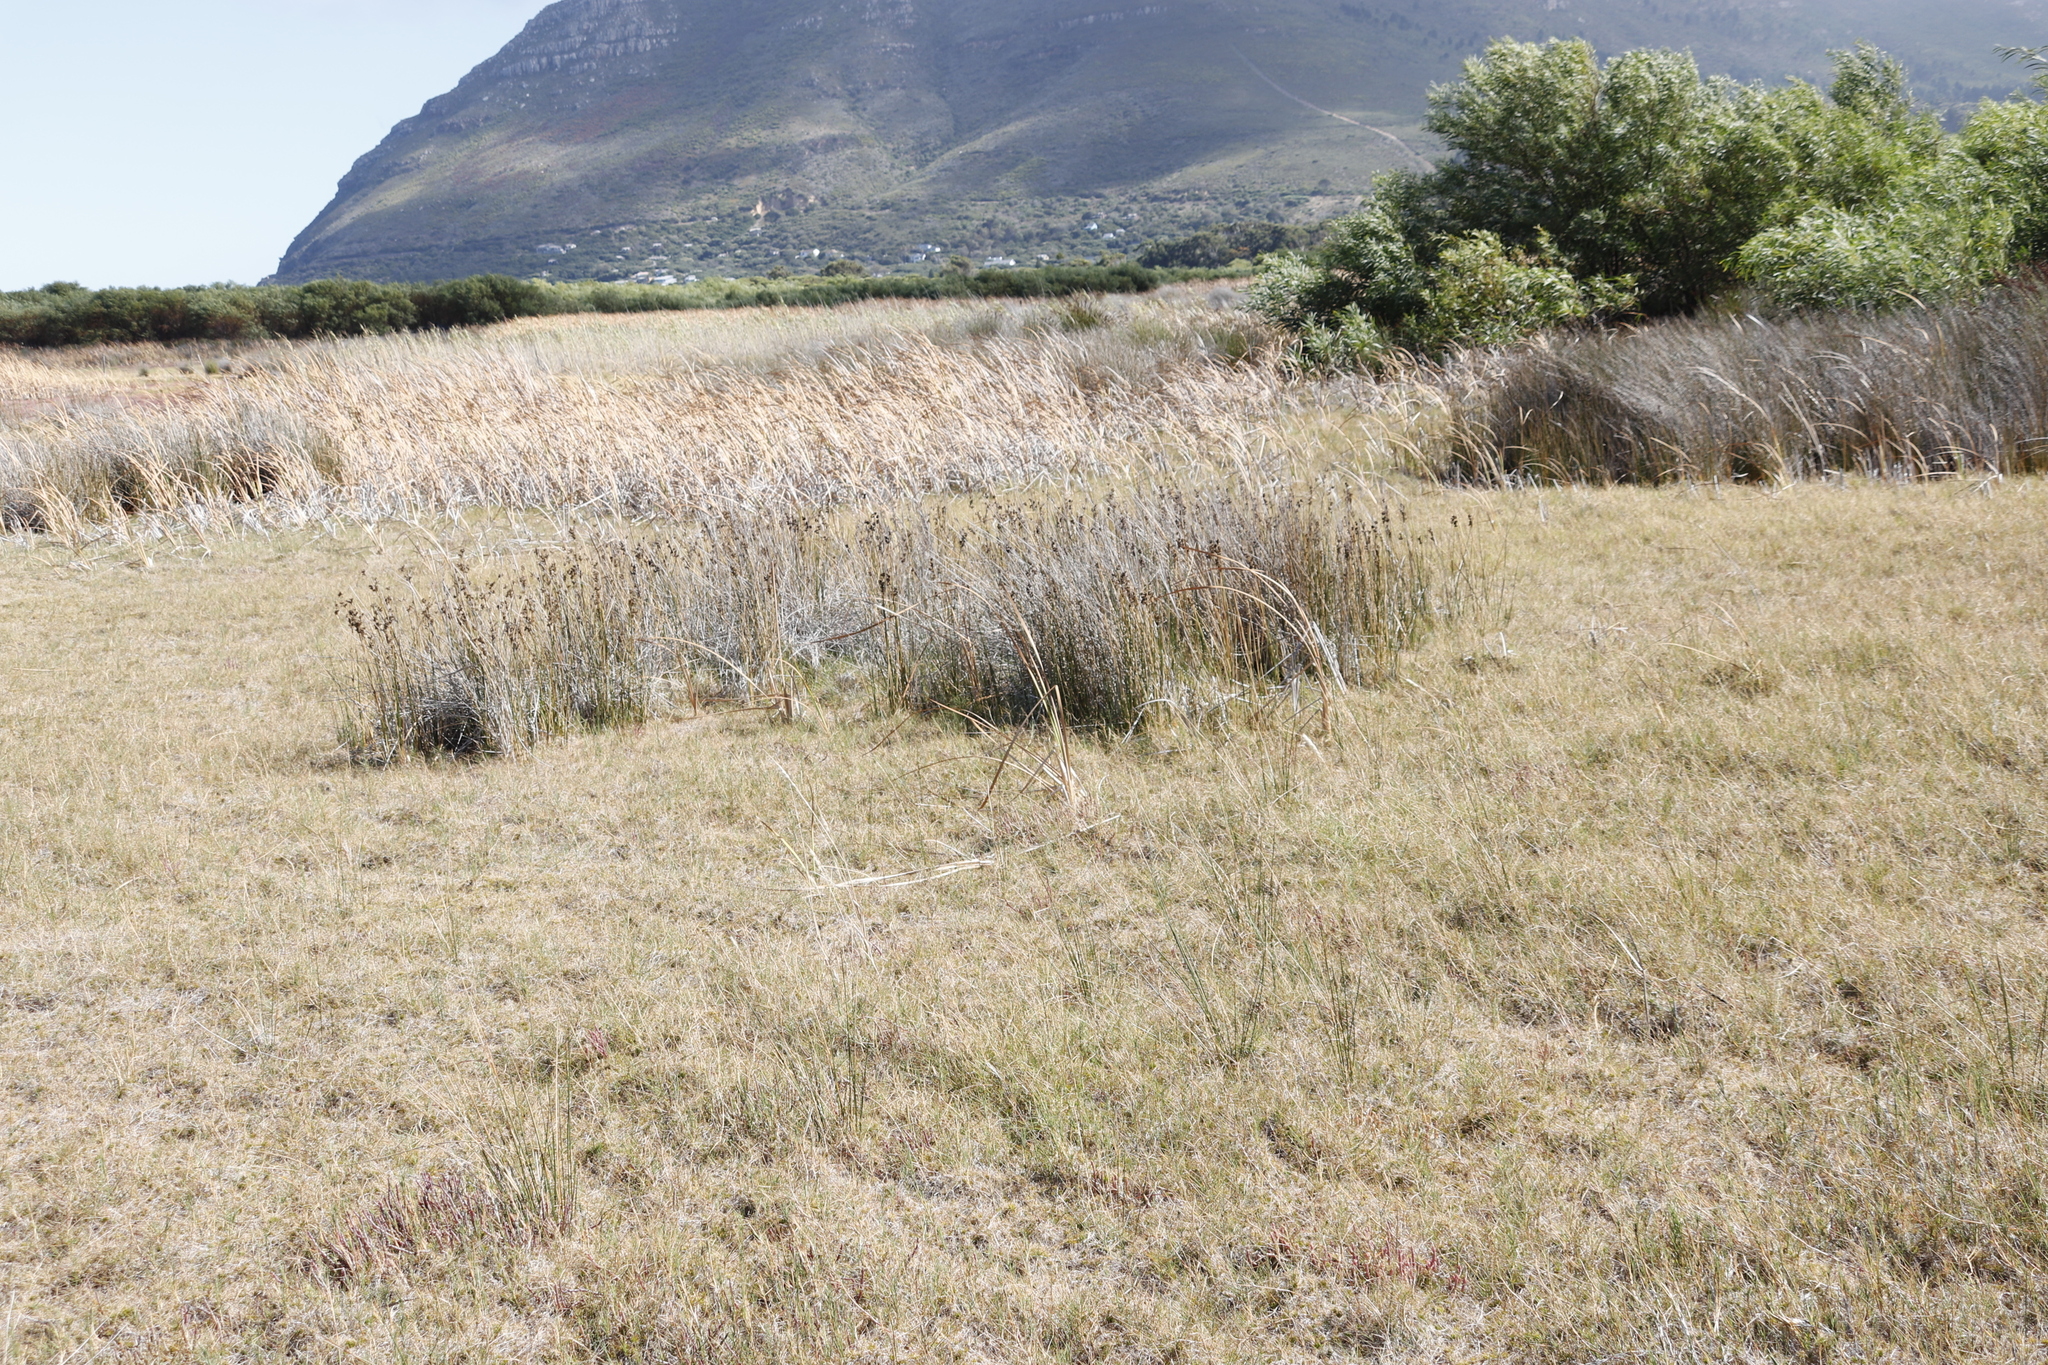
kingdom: Plantae
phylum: Tracheophyta
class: Liliopsida
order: Poales
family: Juncaceae
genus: Juncus
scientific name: Juncus kraussii
